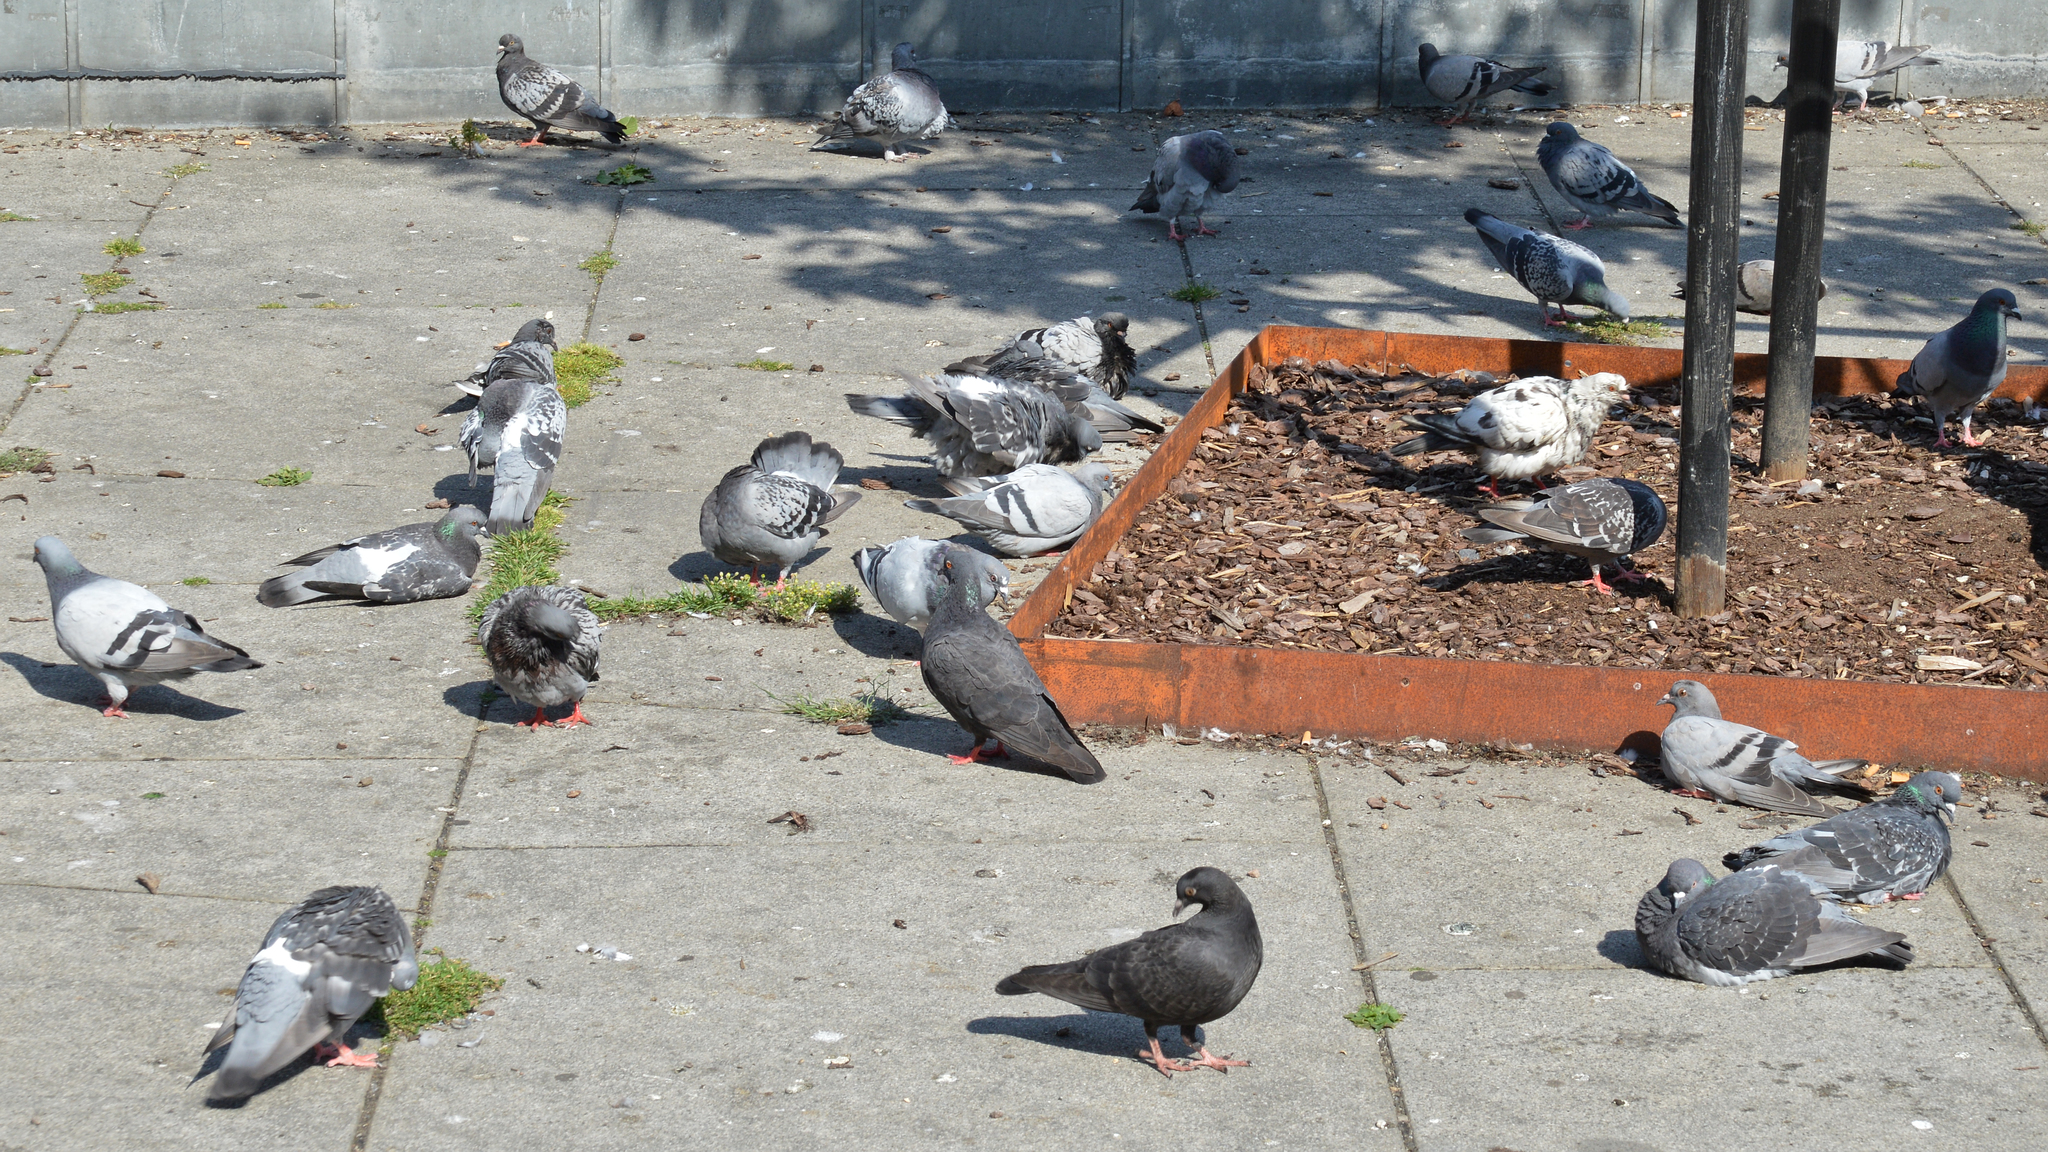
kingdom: Animalia
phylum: Chordata
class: Aves
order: Columbiformes
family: Columbidae
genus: Columba
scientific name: Columba livia
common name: Rock pigeon
